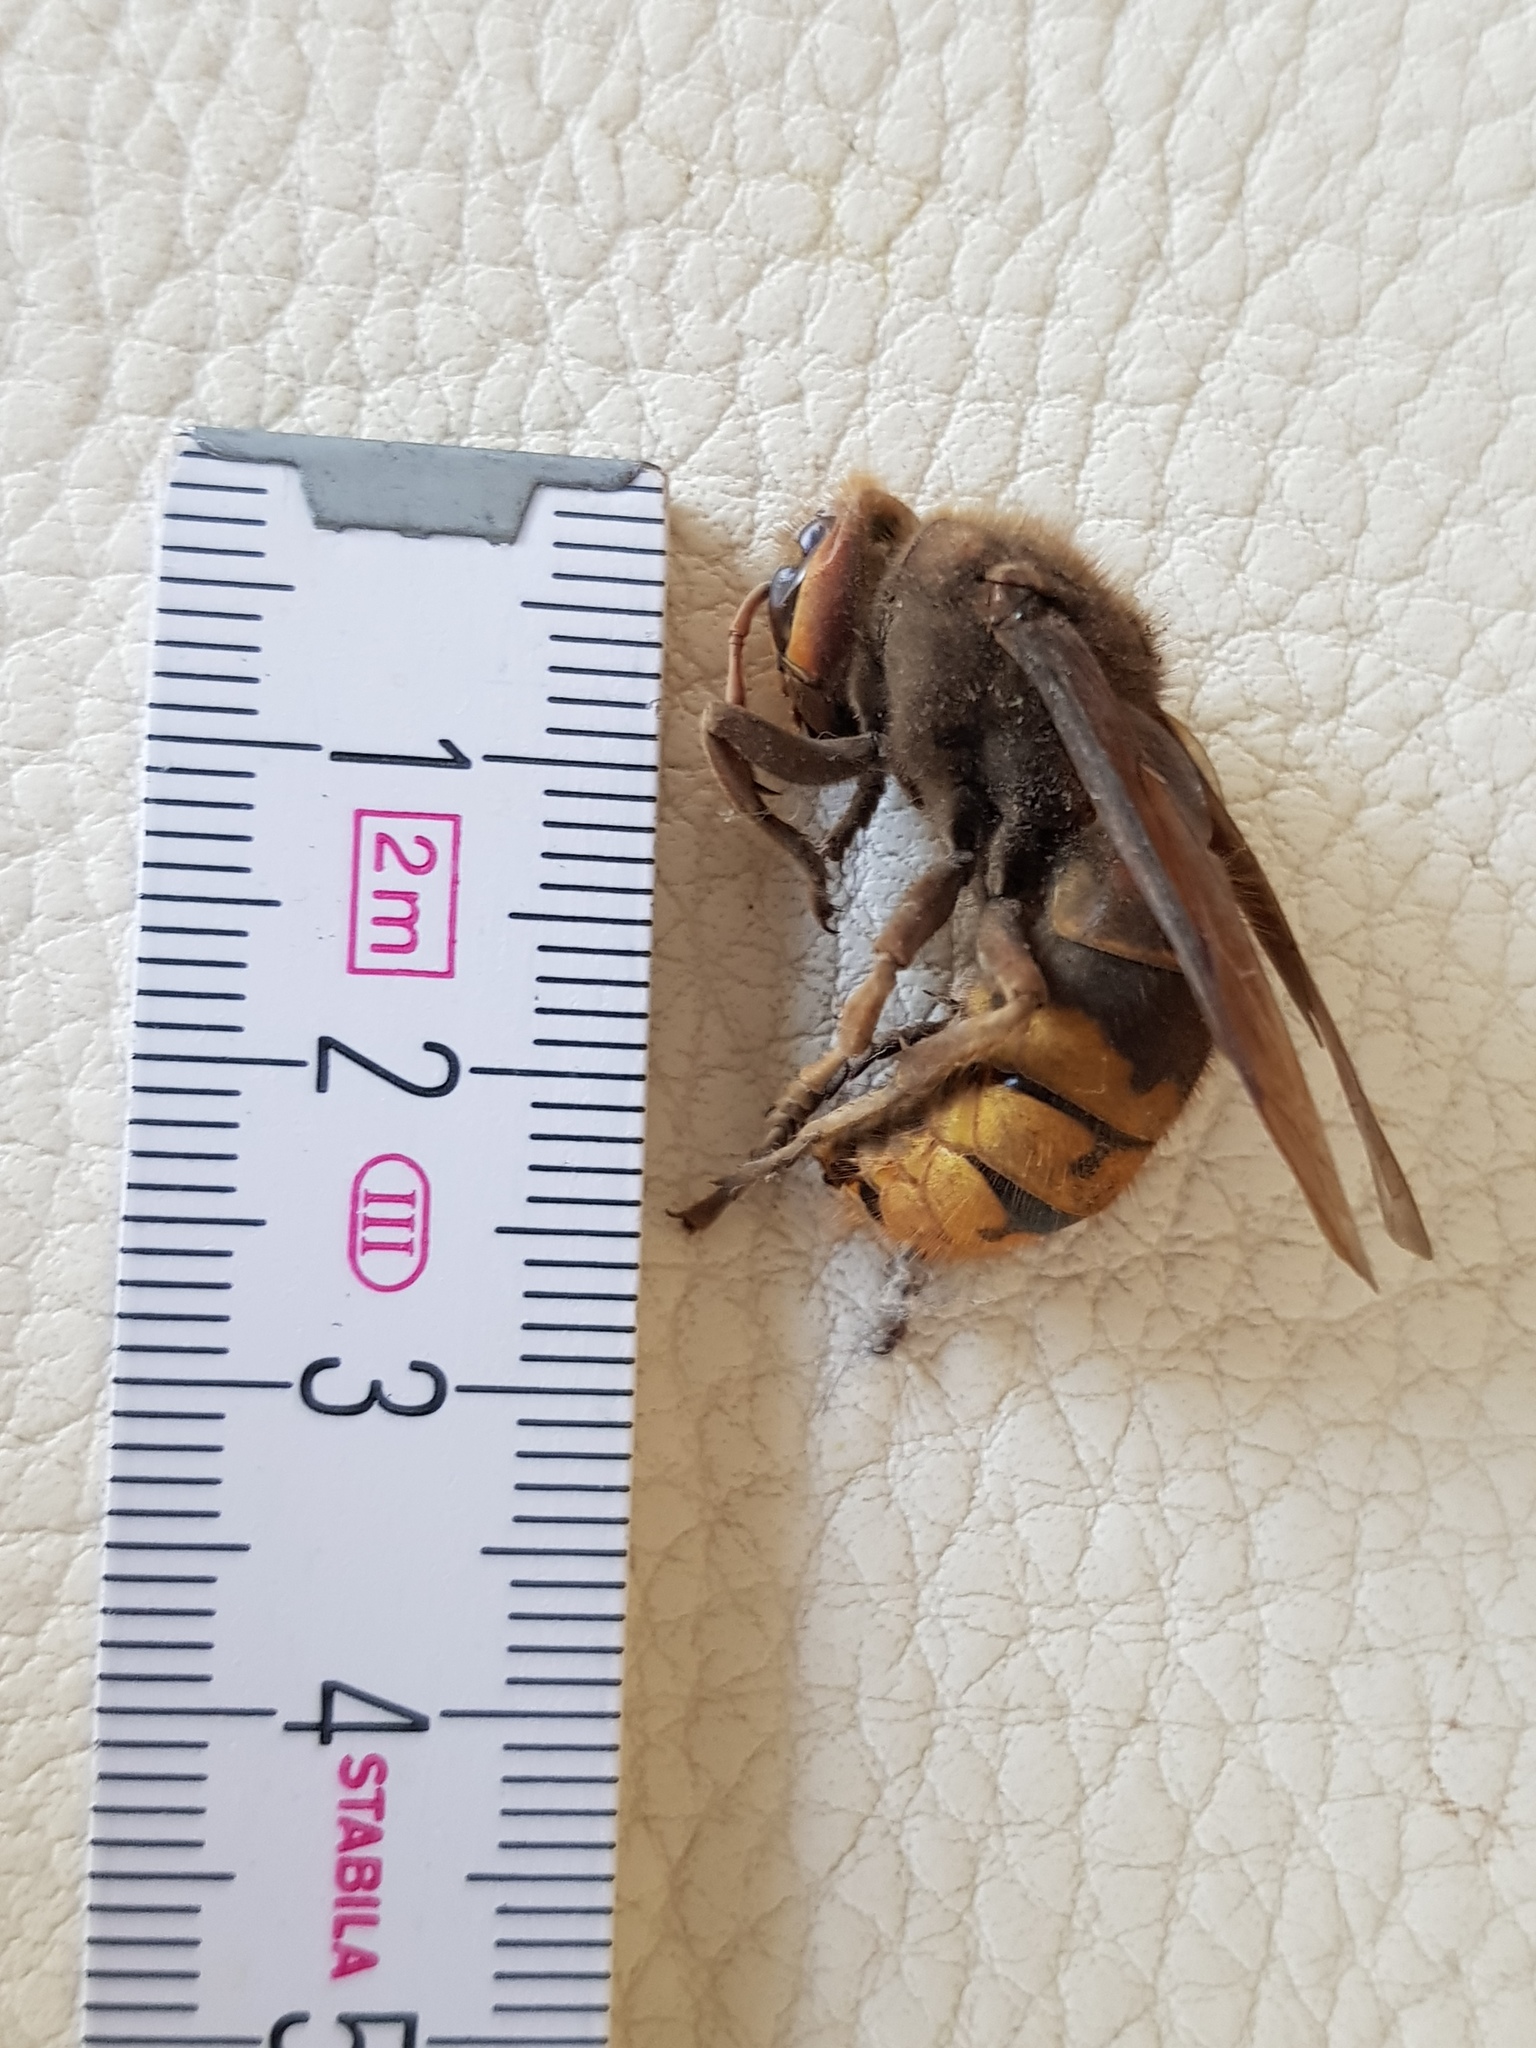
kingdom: Animalia
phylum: Arthropoda
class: Insecta
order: Hymenoptera
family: Vespidae
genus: Vespa
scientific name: Vespa crabro
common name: Hornet
